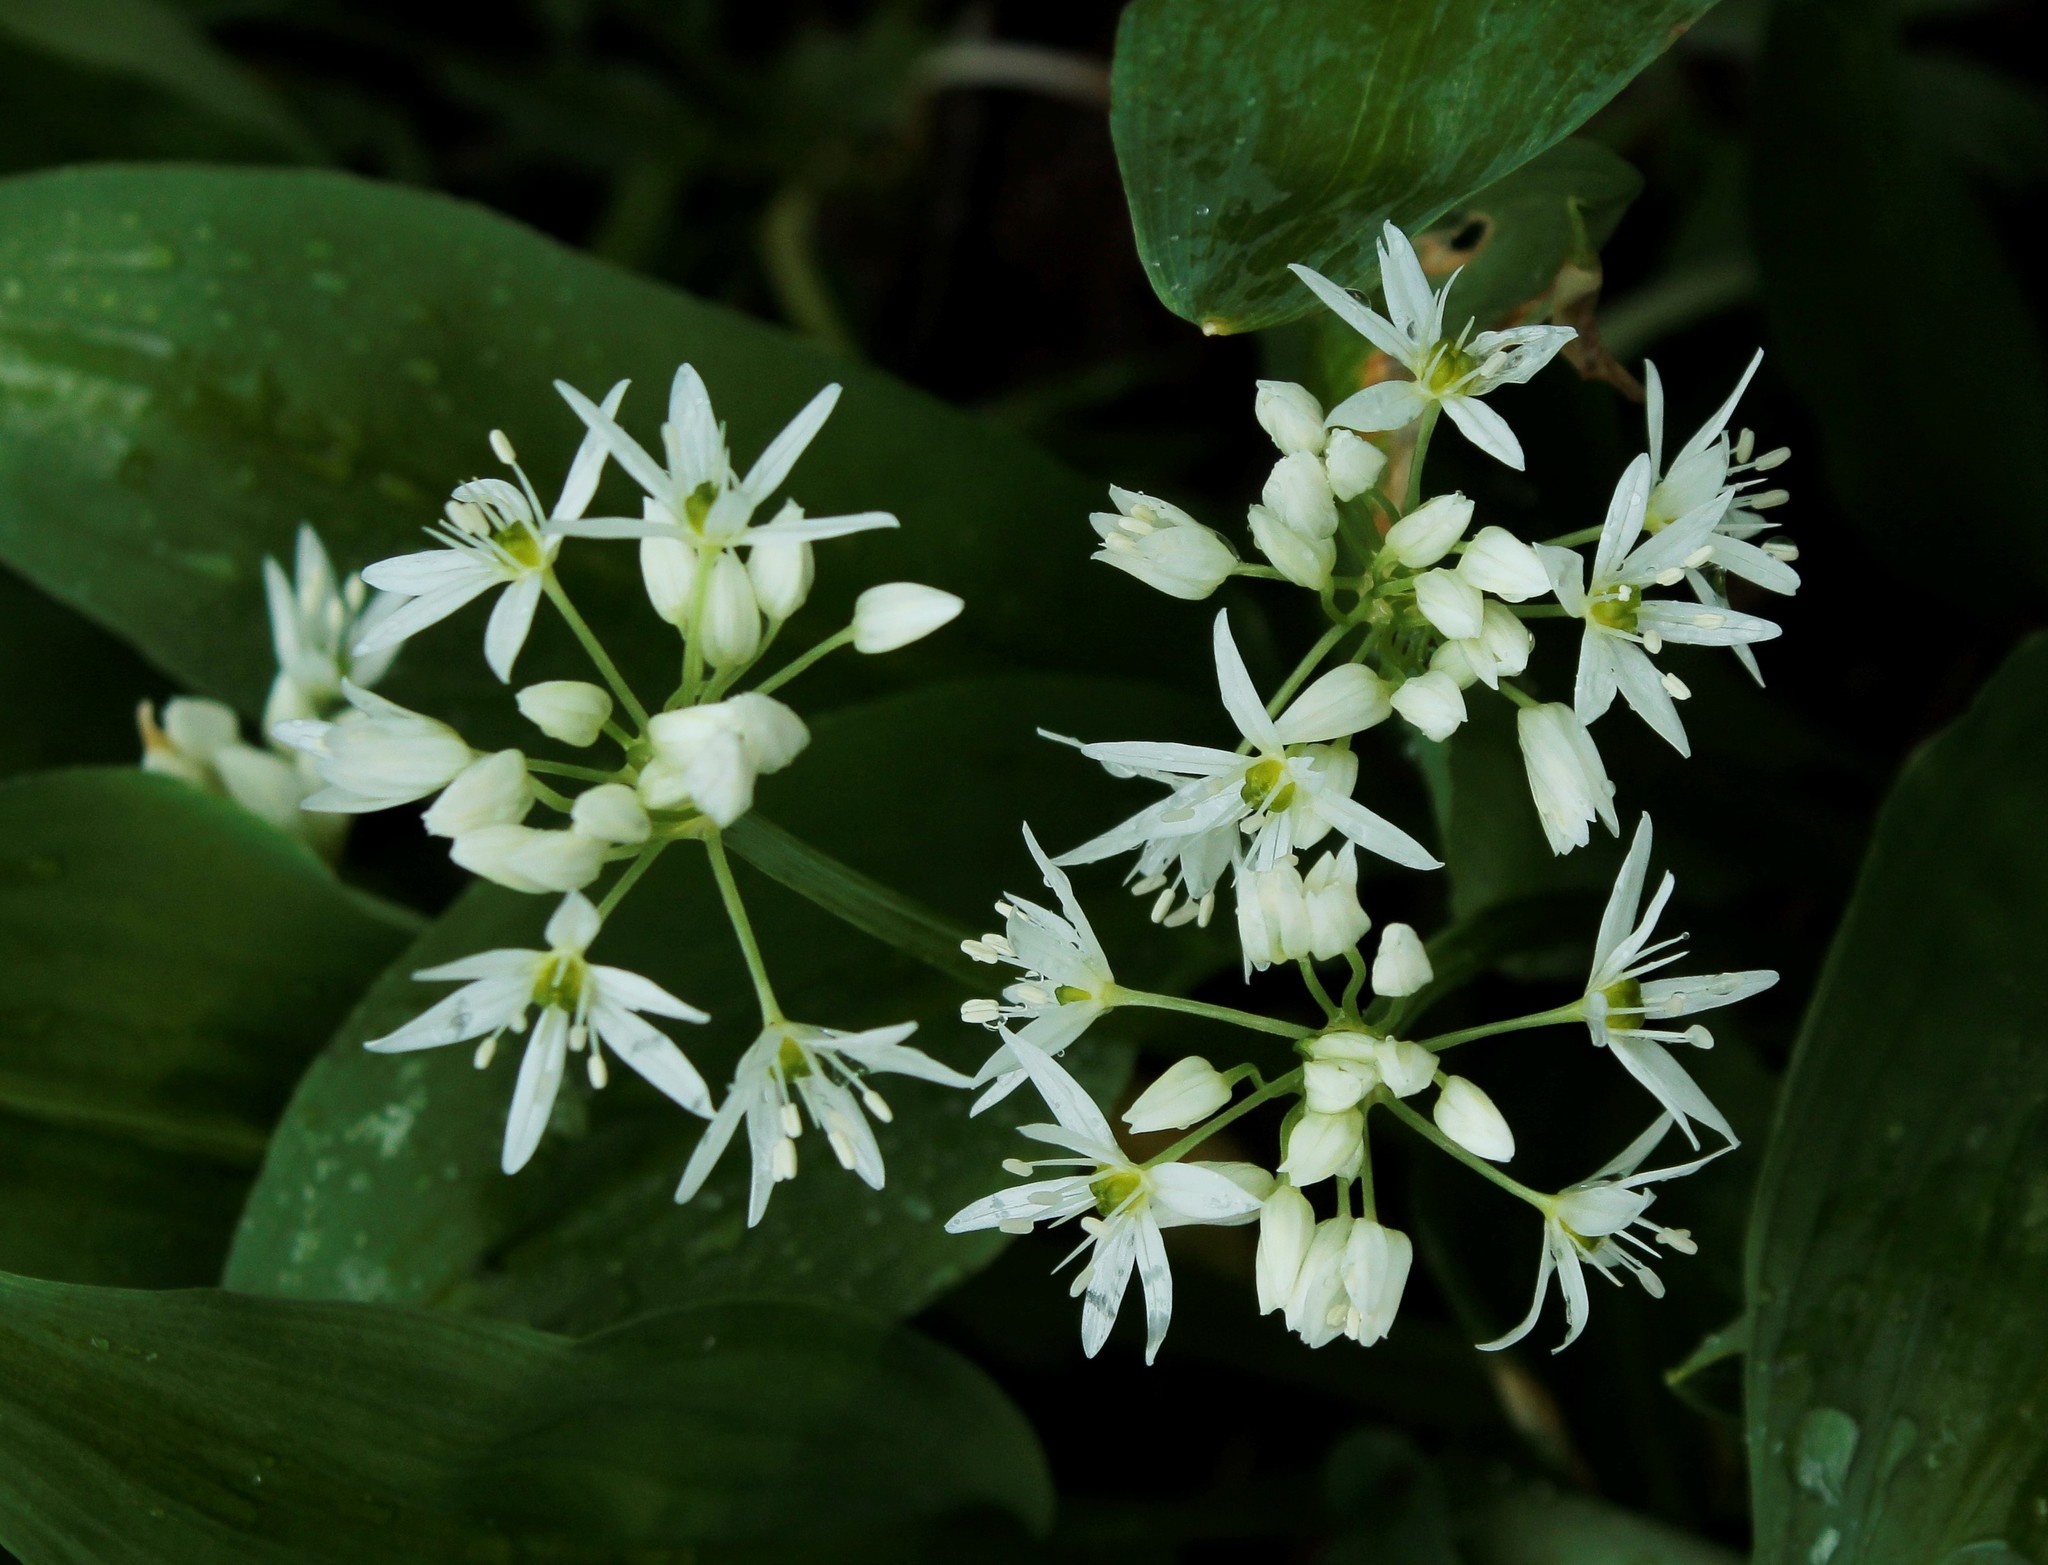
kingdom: Plantae
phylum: Tracheophyta
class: Liliopsida
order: Asparagales
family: Amaryllidaceae
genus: Allium
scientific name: Allium ursinum
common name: Ramsons
